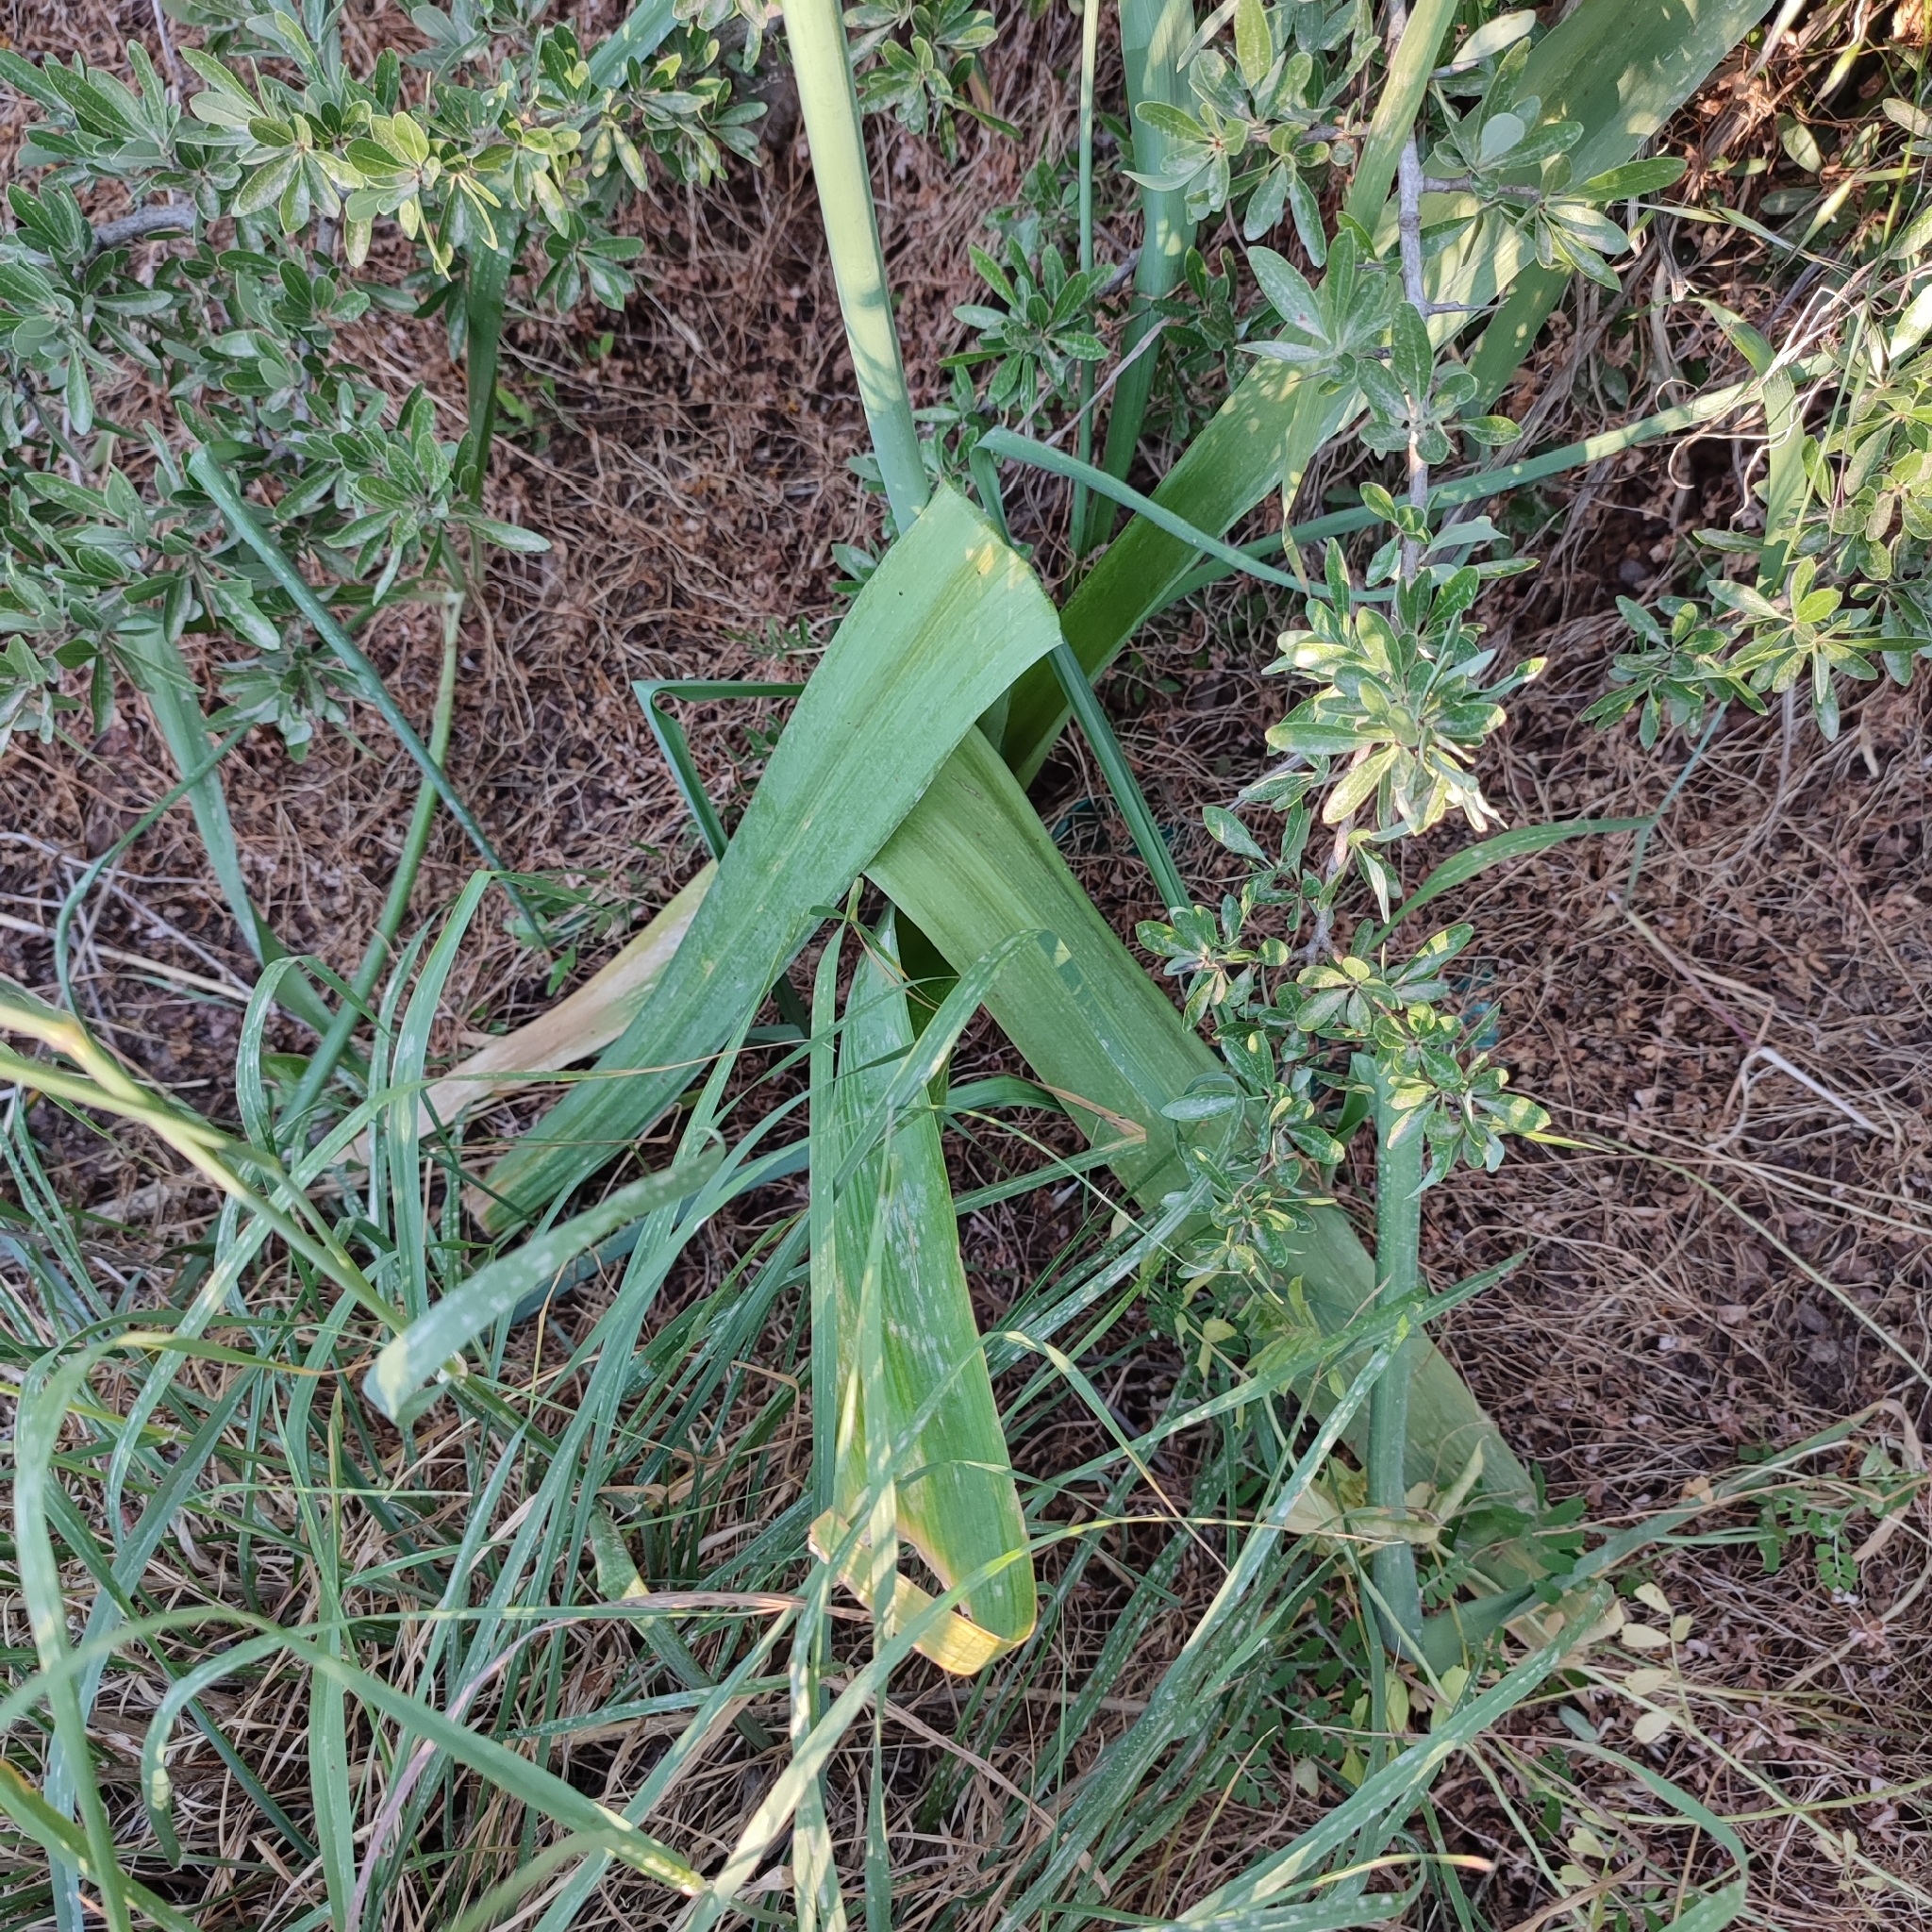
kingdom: Plantae
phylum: Tracheophyta
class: Liliopsida
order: Asparagales
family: Amaryllidaceae
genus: Allium
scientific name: Allium nigrum
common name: Black garlic
